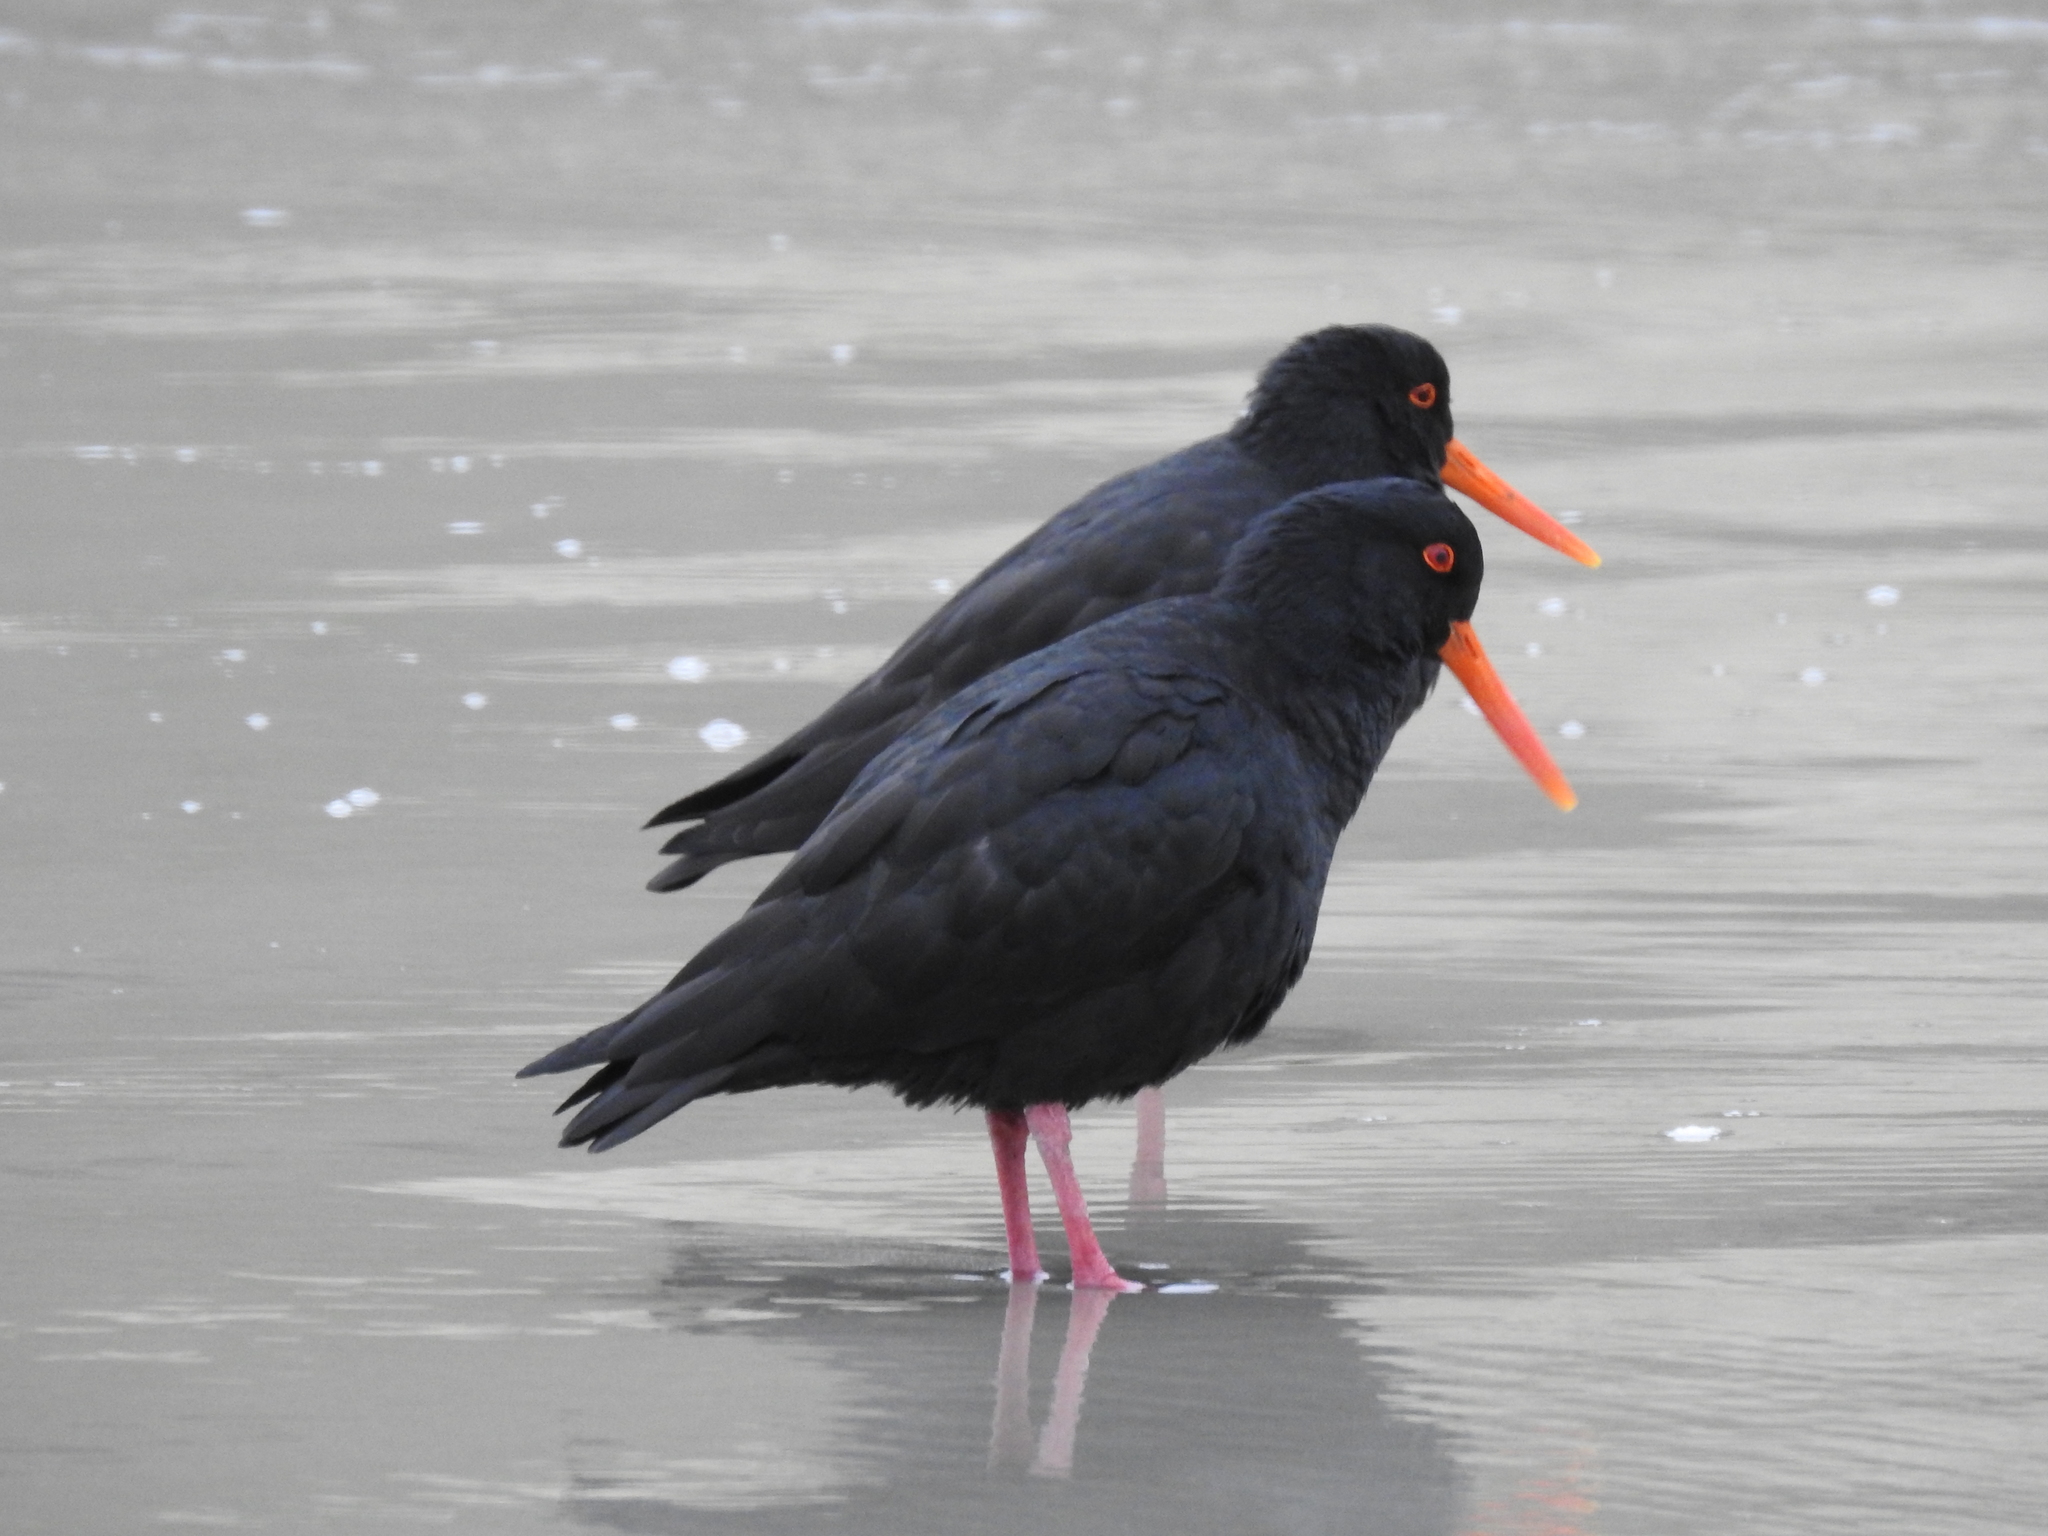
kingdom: Animalia
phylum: Chordata
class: Aves
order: Charadriiformes
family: Haematopodidae
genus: Haematopus
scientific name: Haematopus unicolor
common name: Variable oystercatcher
